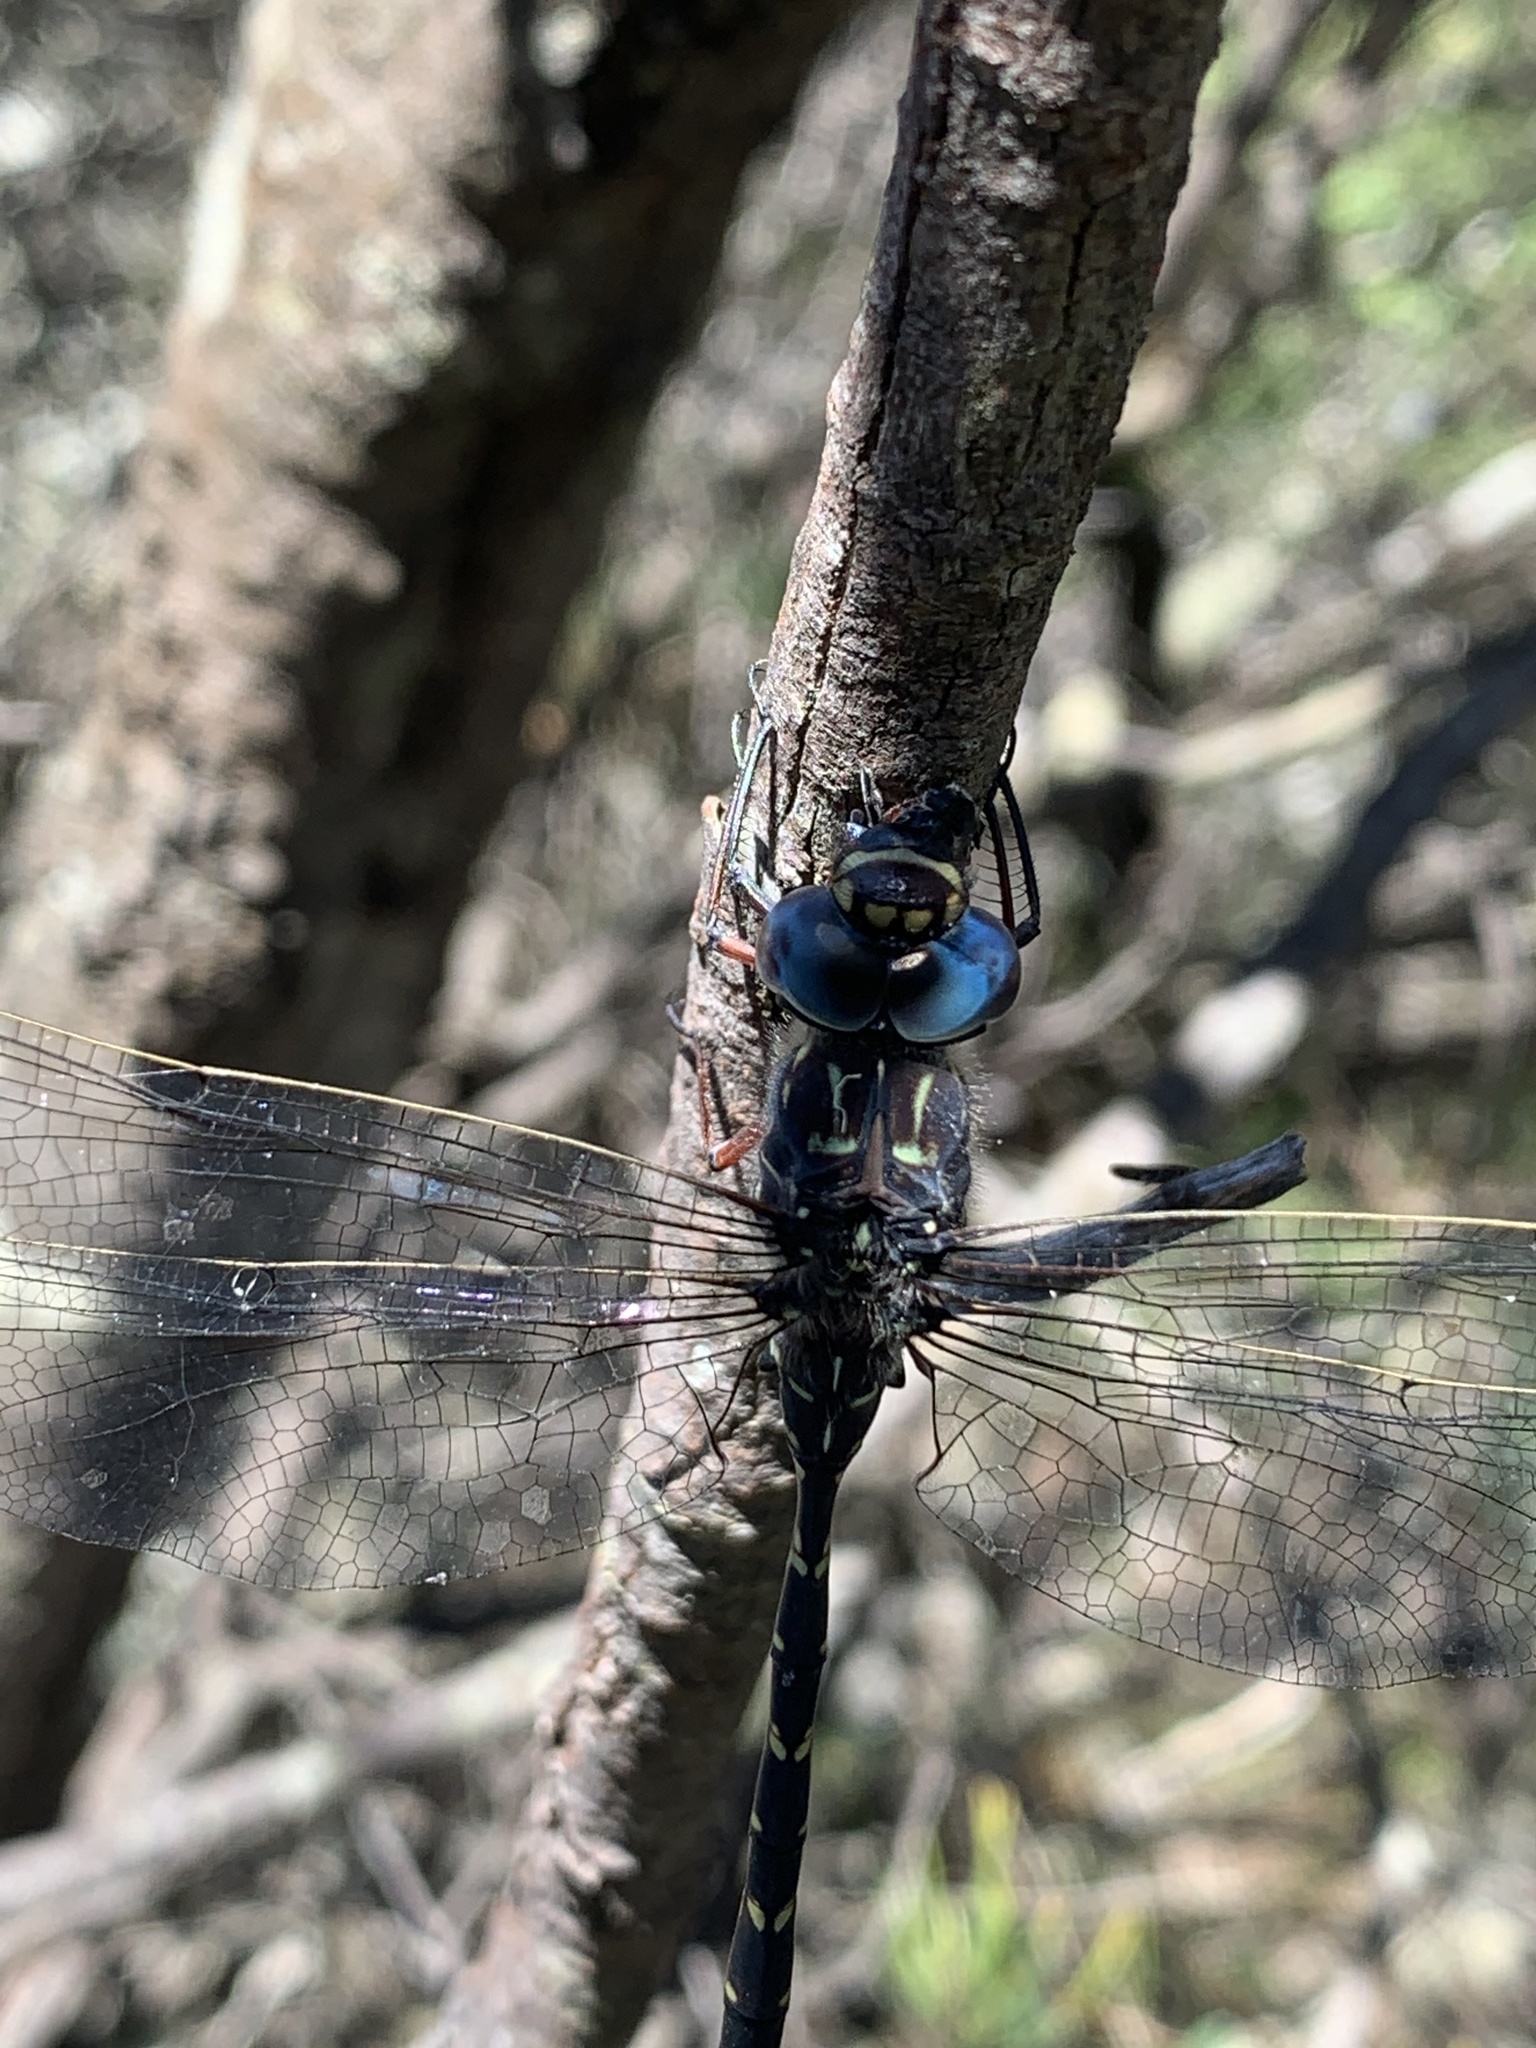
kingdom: Animalia
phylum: Arthropoda
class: Insecta
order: Odonata
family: Aeshnidae
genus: Austroaeschna
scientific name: Austroaeschna obscura
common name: Sydney mountain darner
